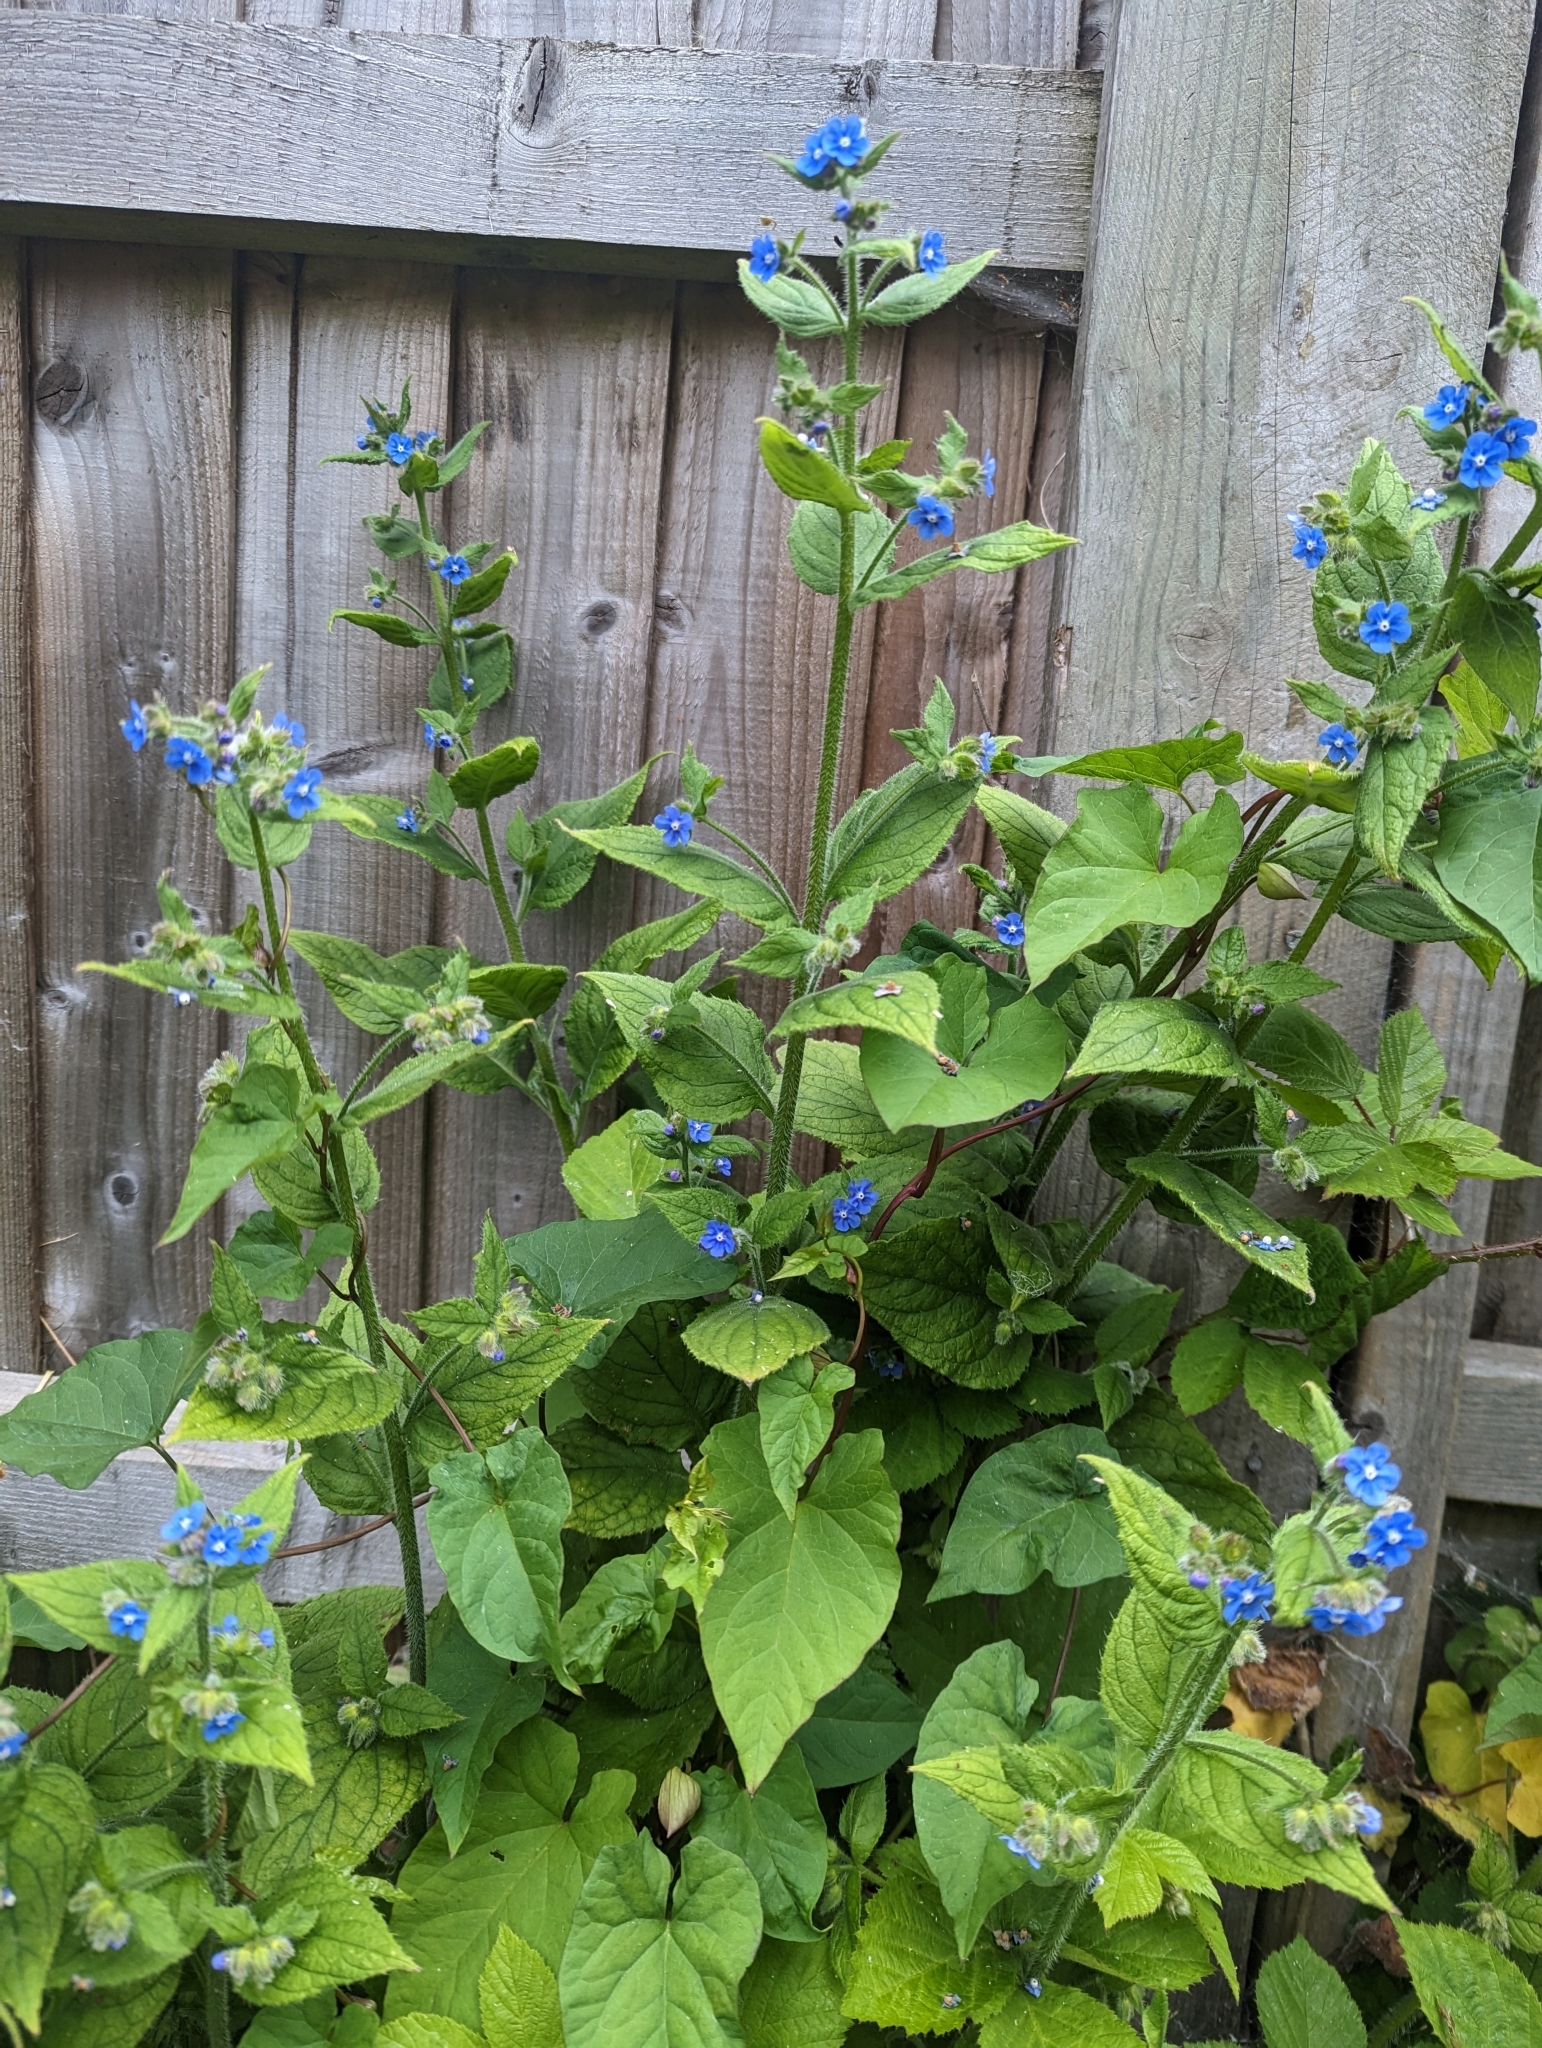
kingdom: Plantae
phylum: Tracheophyta
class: Magnoliopsida
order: Boraginales
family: Boraginaceae
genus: Pentaglottis
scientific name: Pentaglottis sempervirens
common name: Green alkanet
